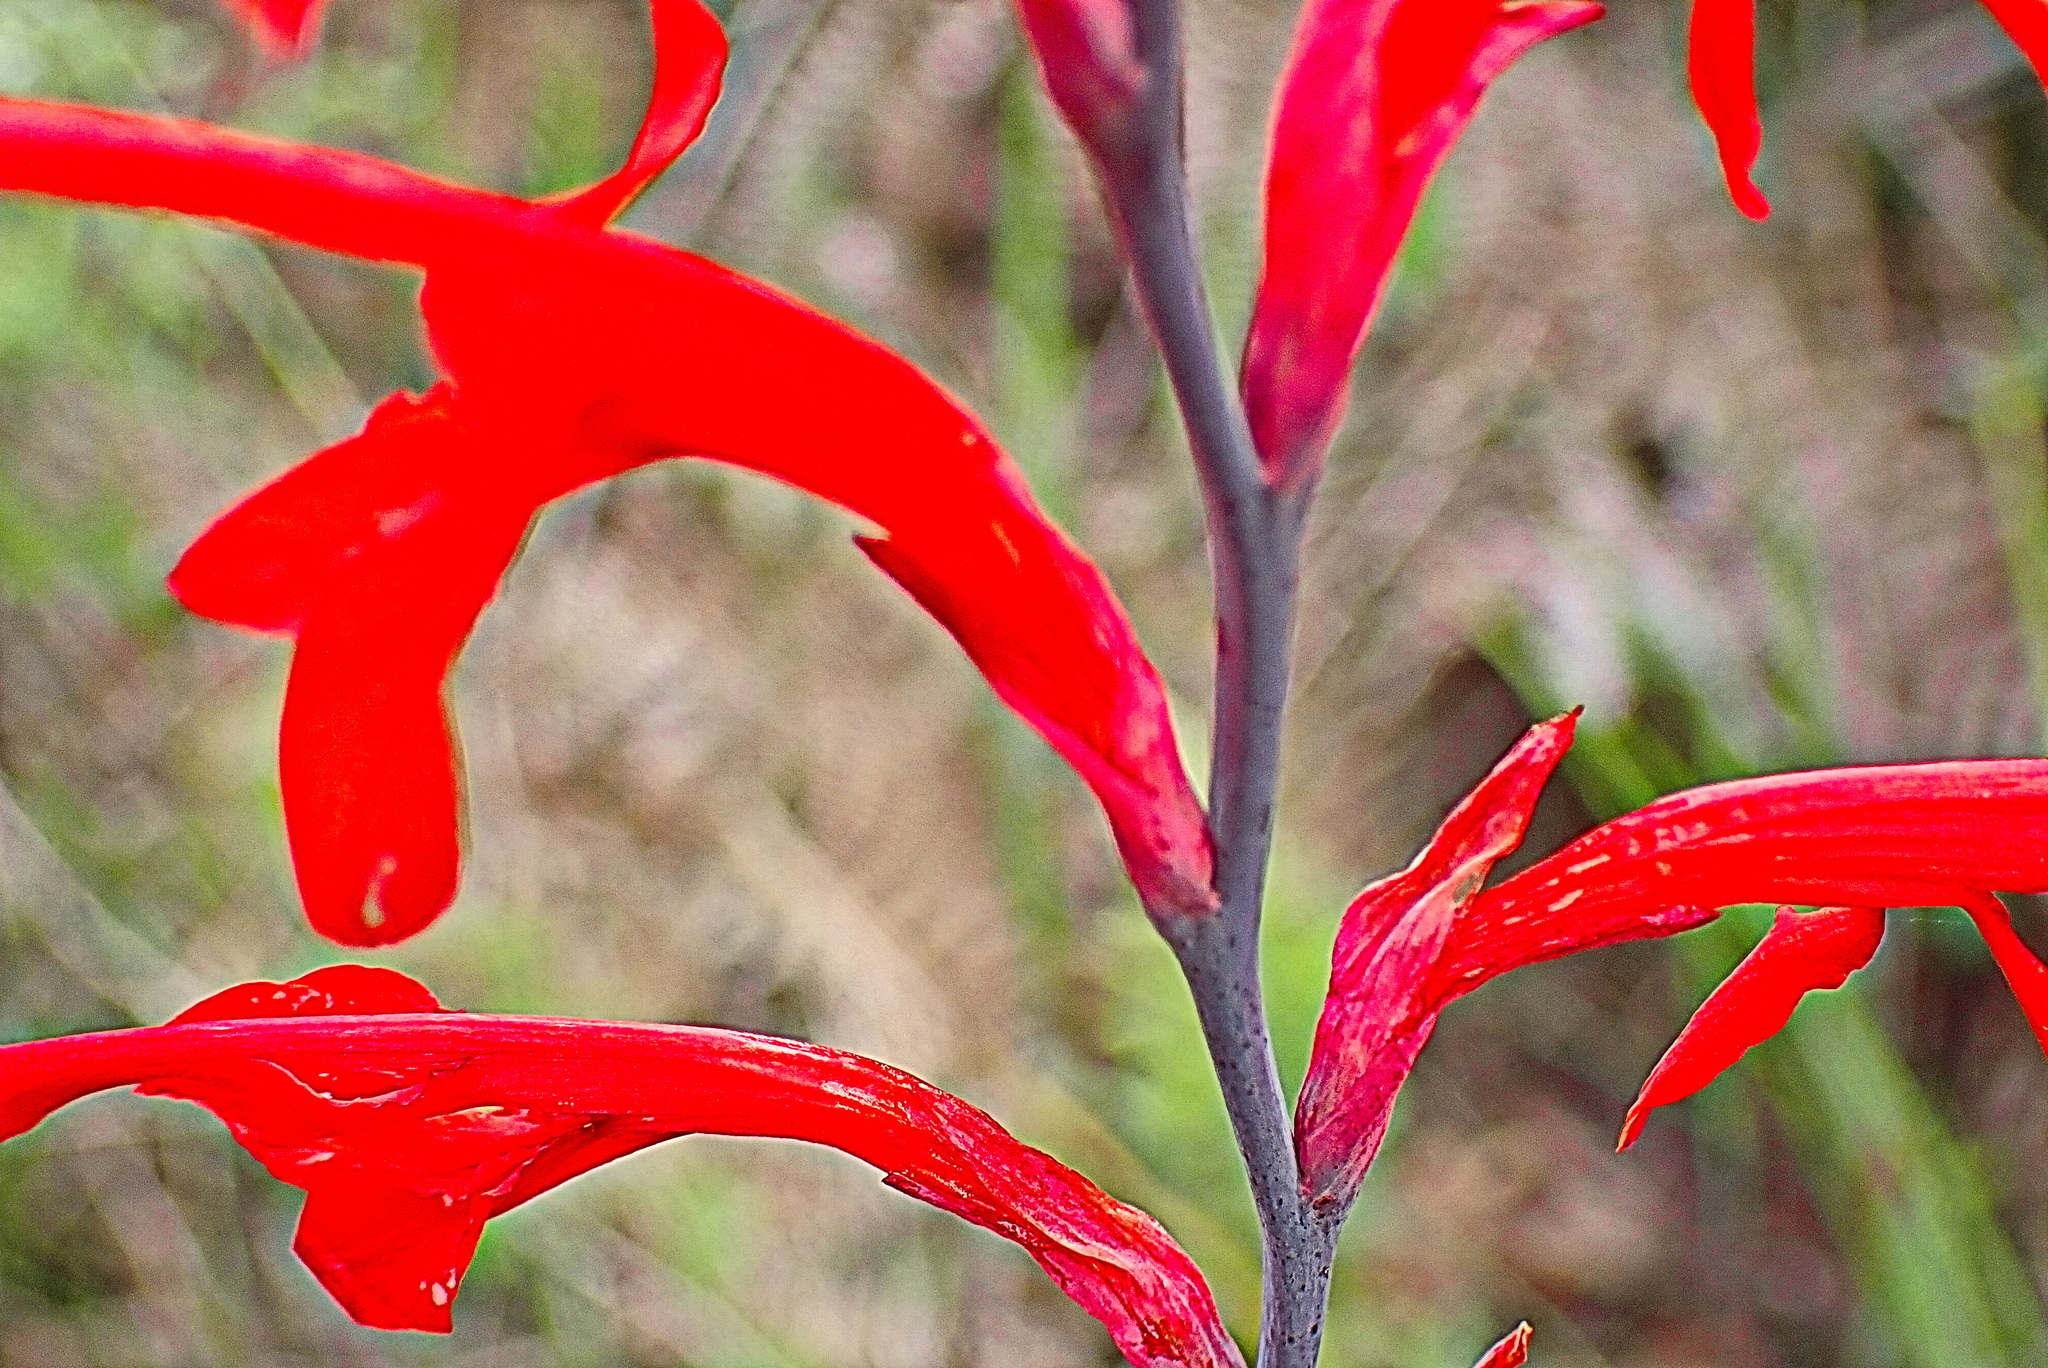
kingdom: Plantae
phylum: Tracheophyta
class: Liliopsida
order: Asparagales
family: Iridaceae
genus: Tritoniopsis
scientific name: Tritoniopsis caffra
